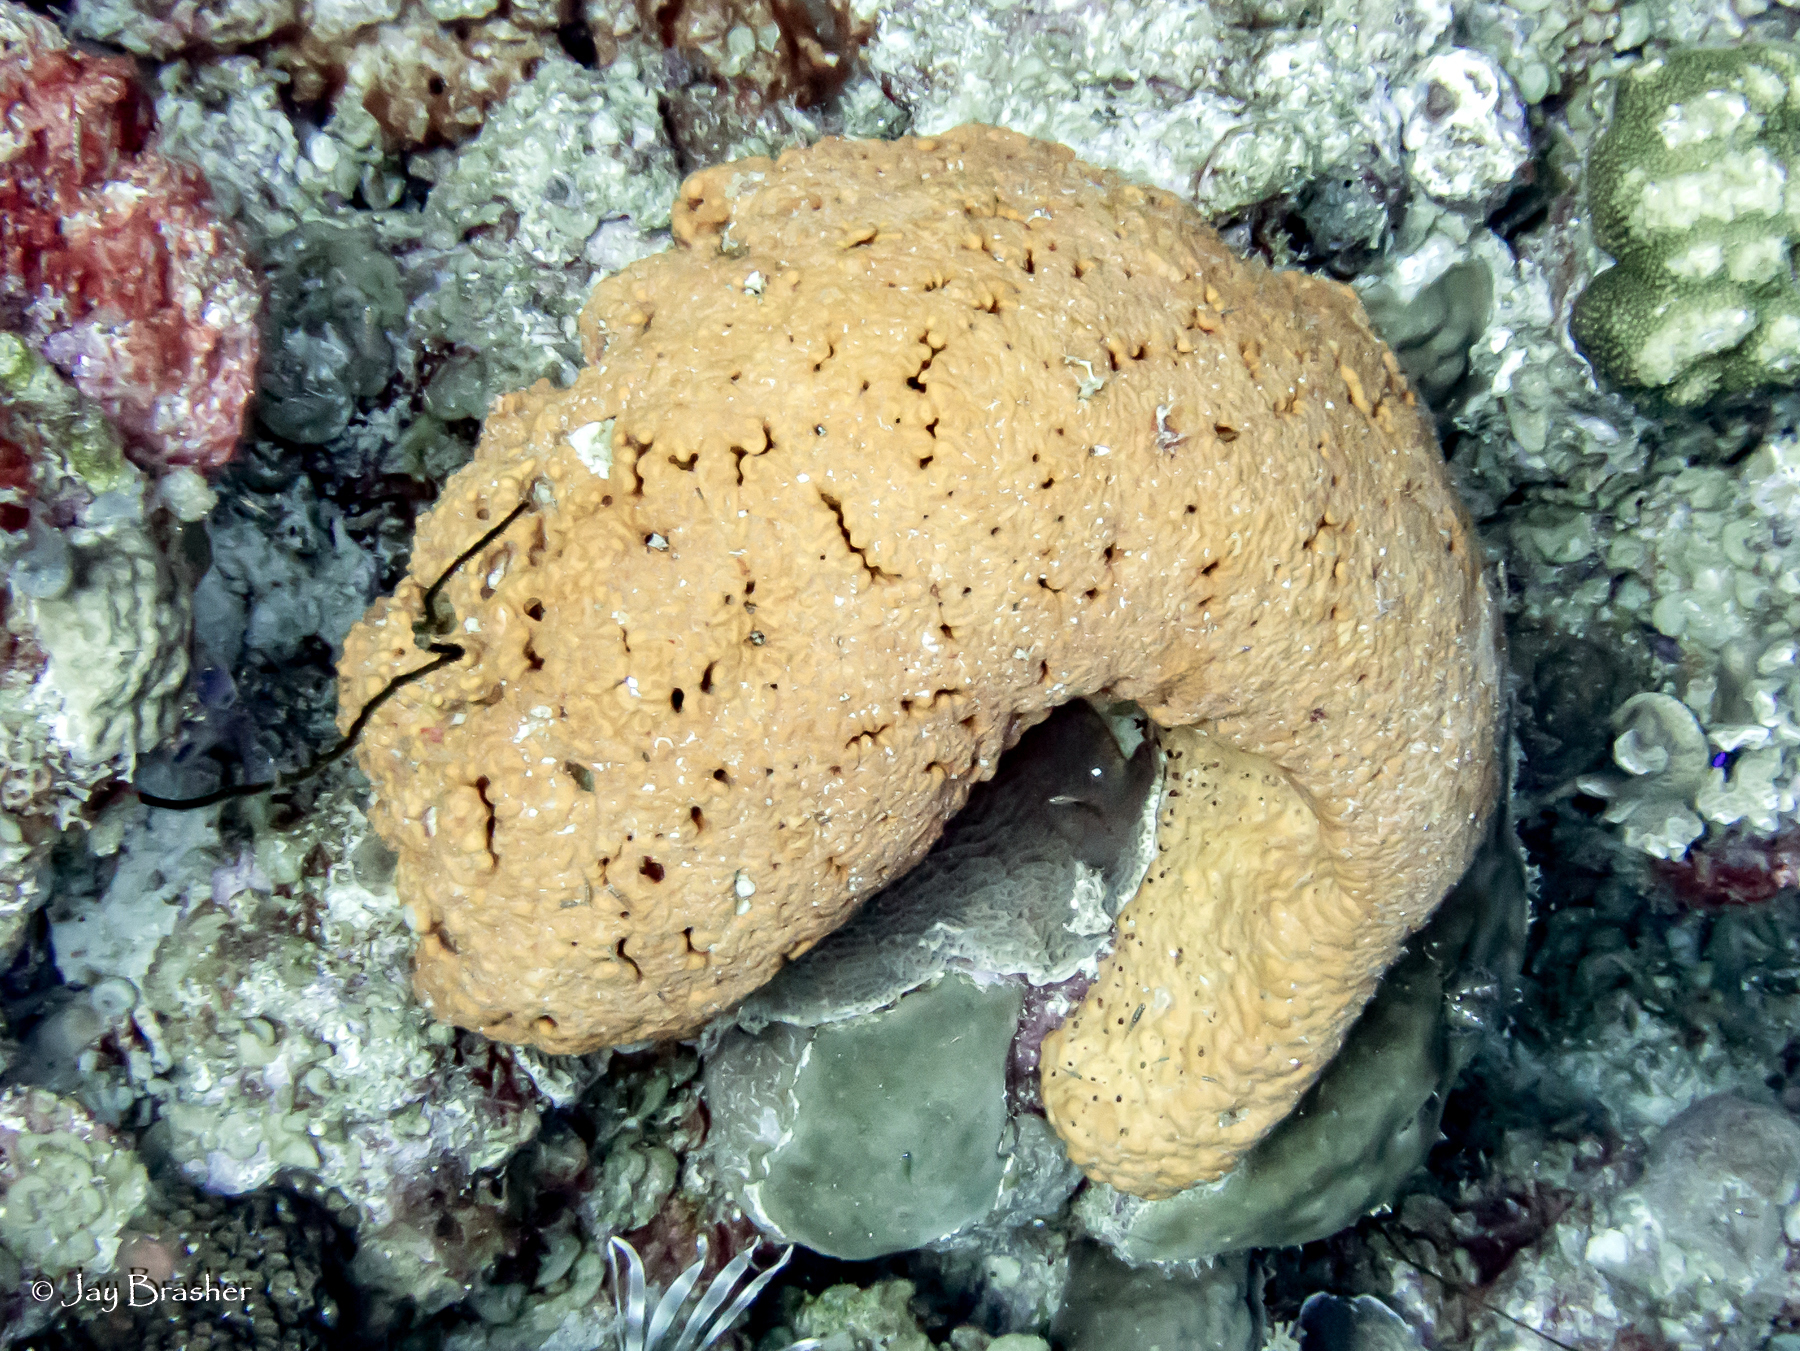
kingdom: Animalia
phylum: Porifera
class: Demospongiae
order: Agelasida
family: Agelasidae
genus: Agelas
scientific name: Agelas citrina
